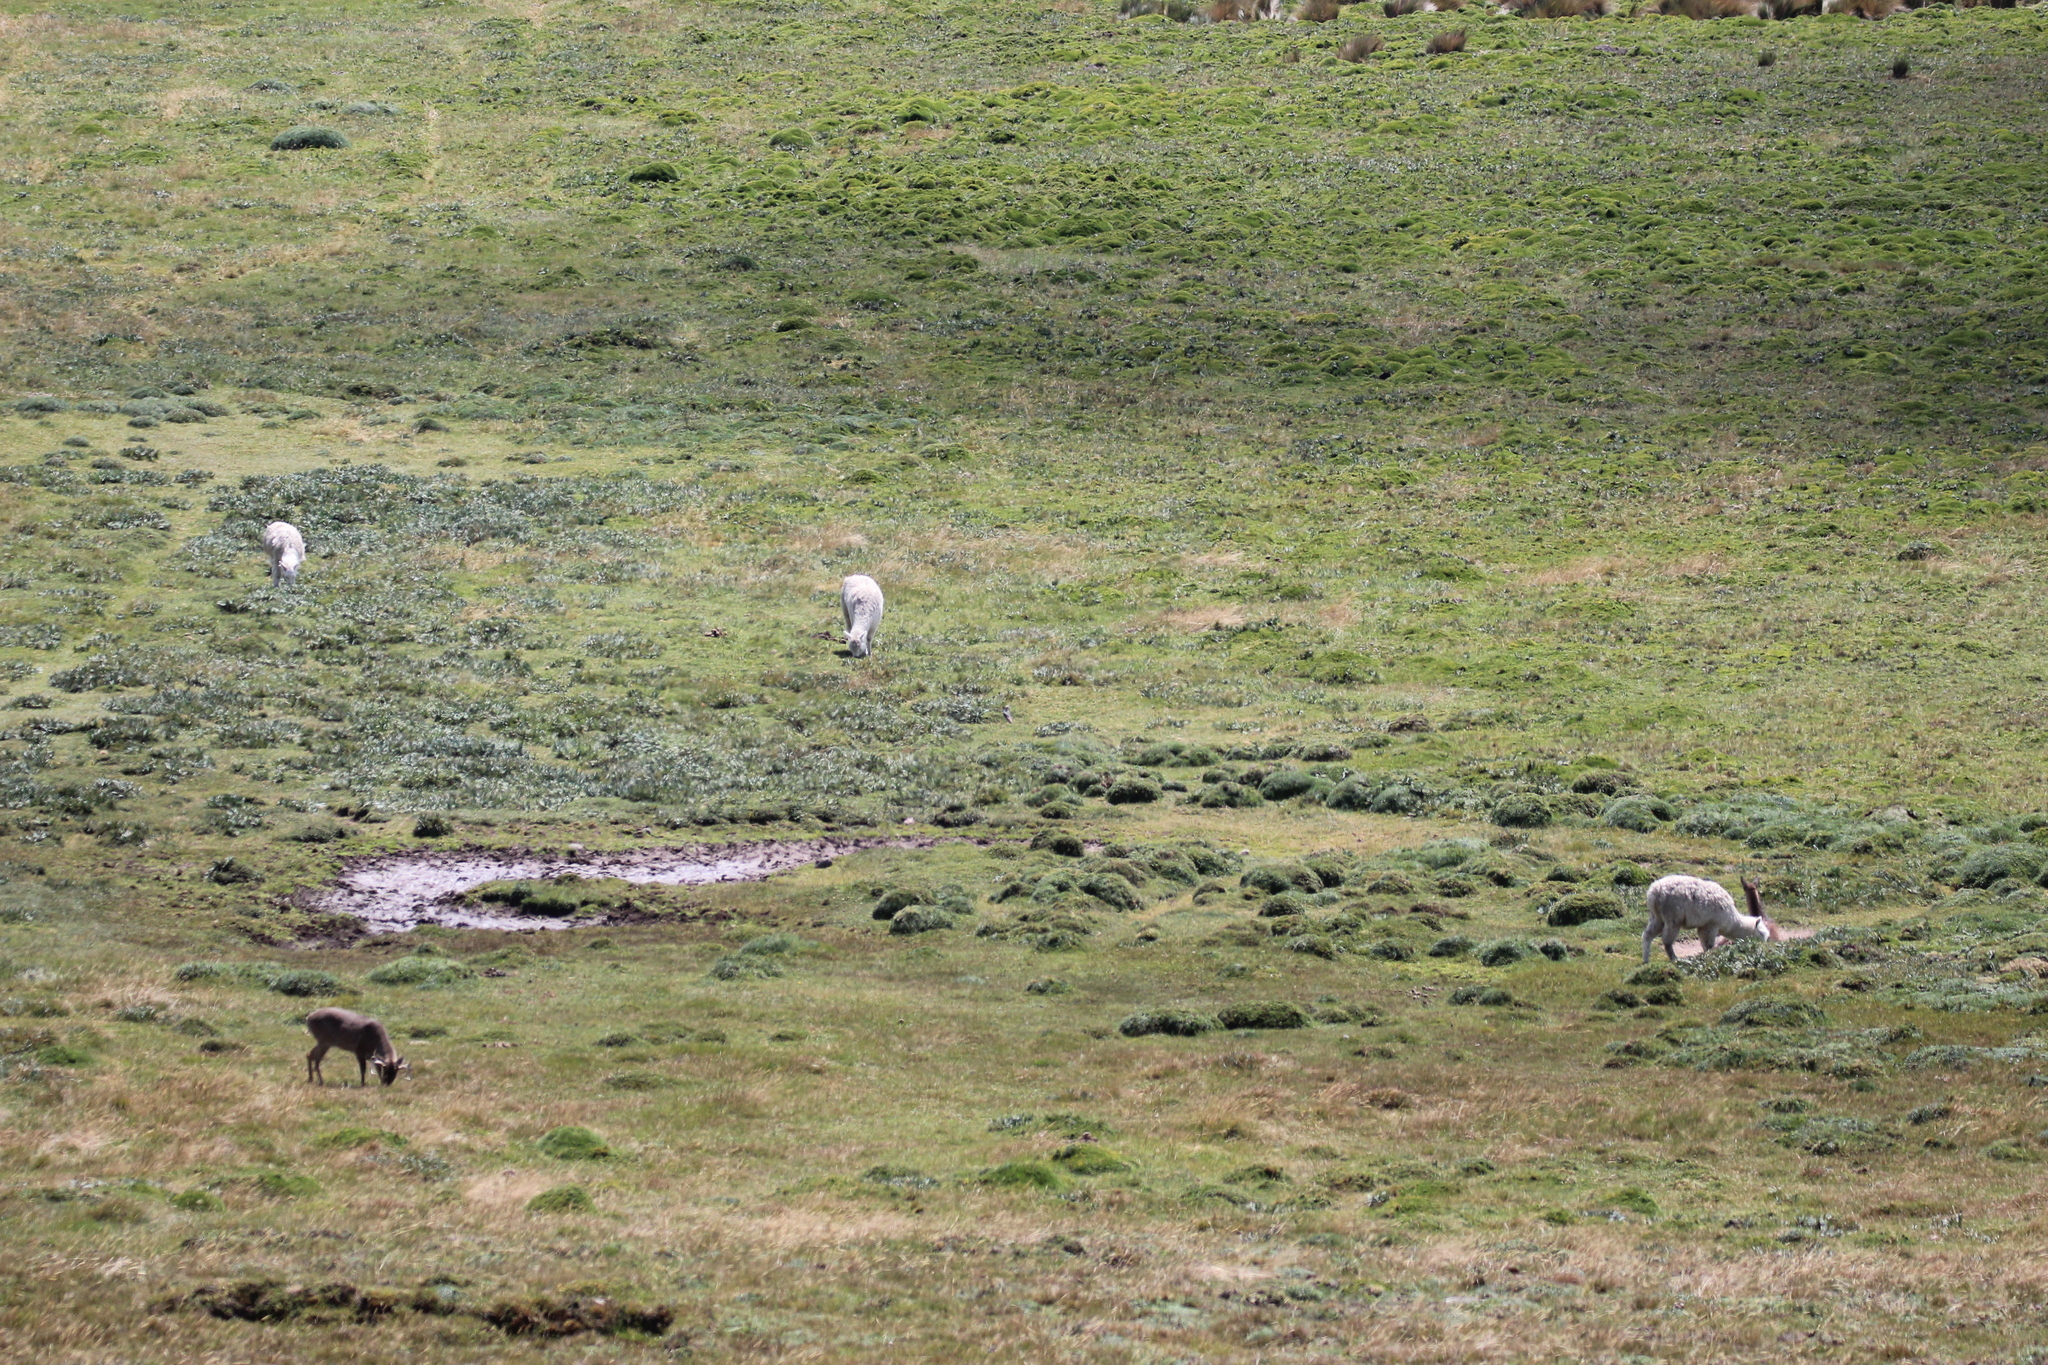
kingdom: Animalia
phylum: Chordata
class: Mammalia
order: Artiodactyla
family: Cervidae
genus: Odocoileus
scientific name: Odocoileus virginianus
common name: White-tailed deer
